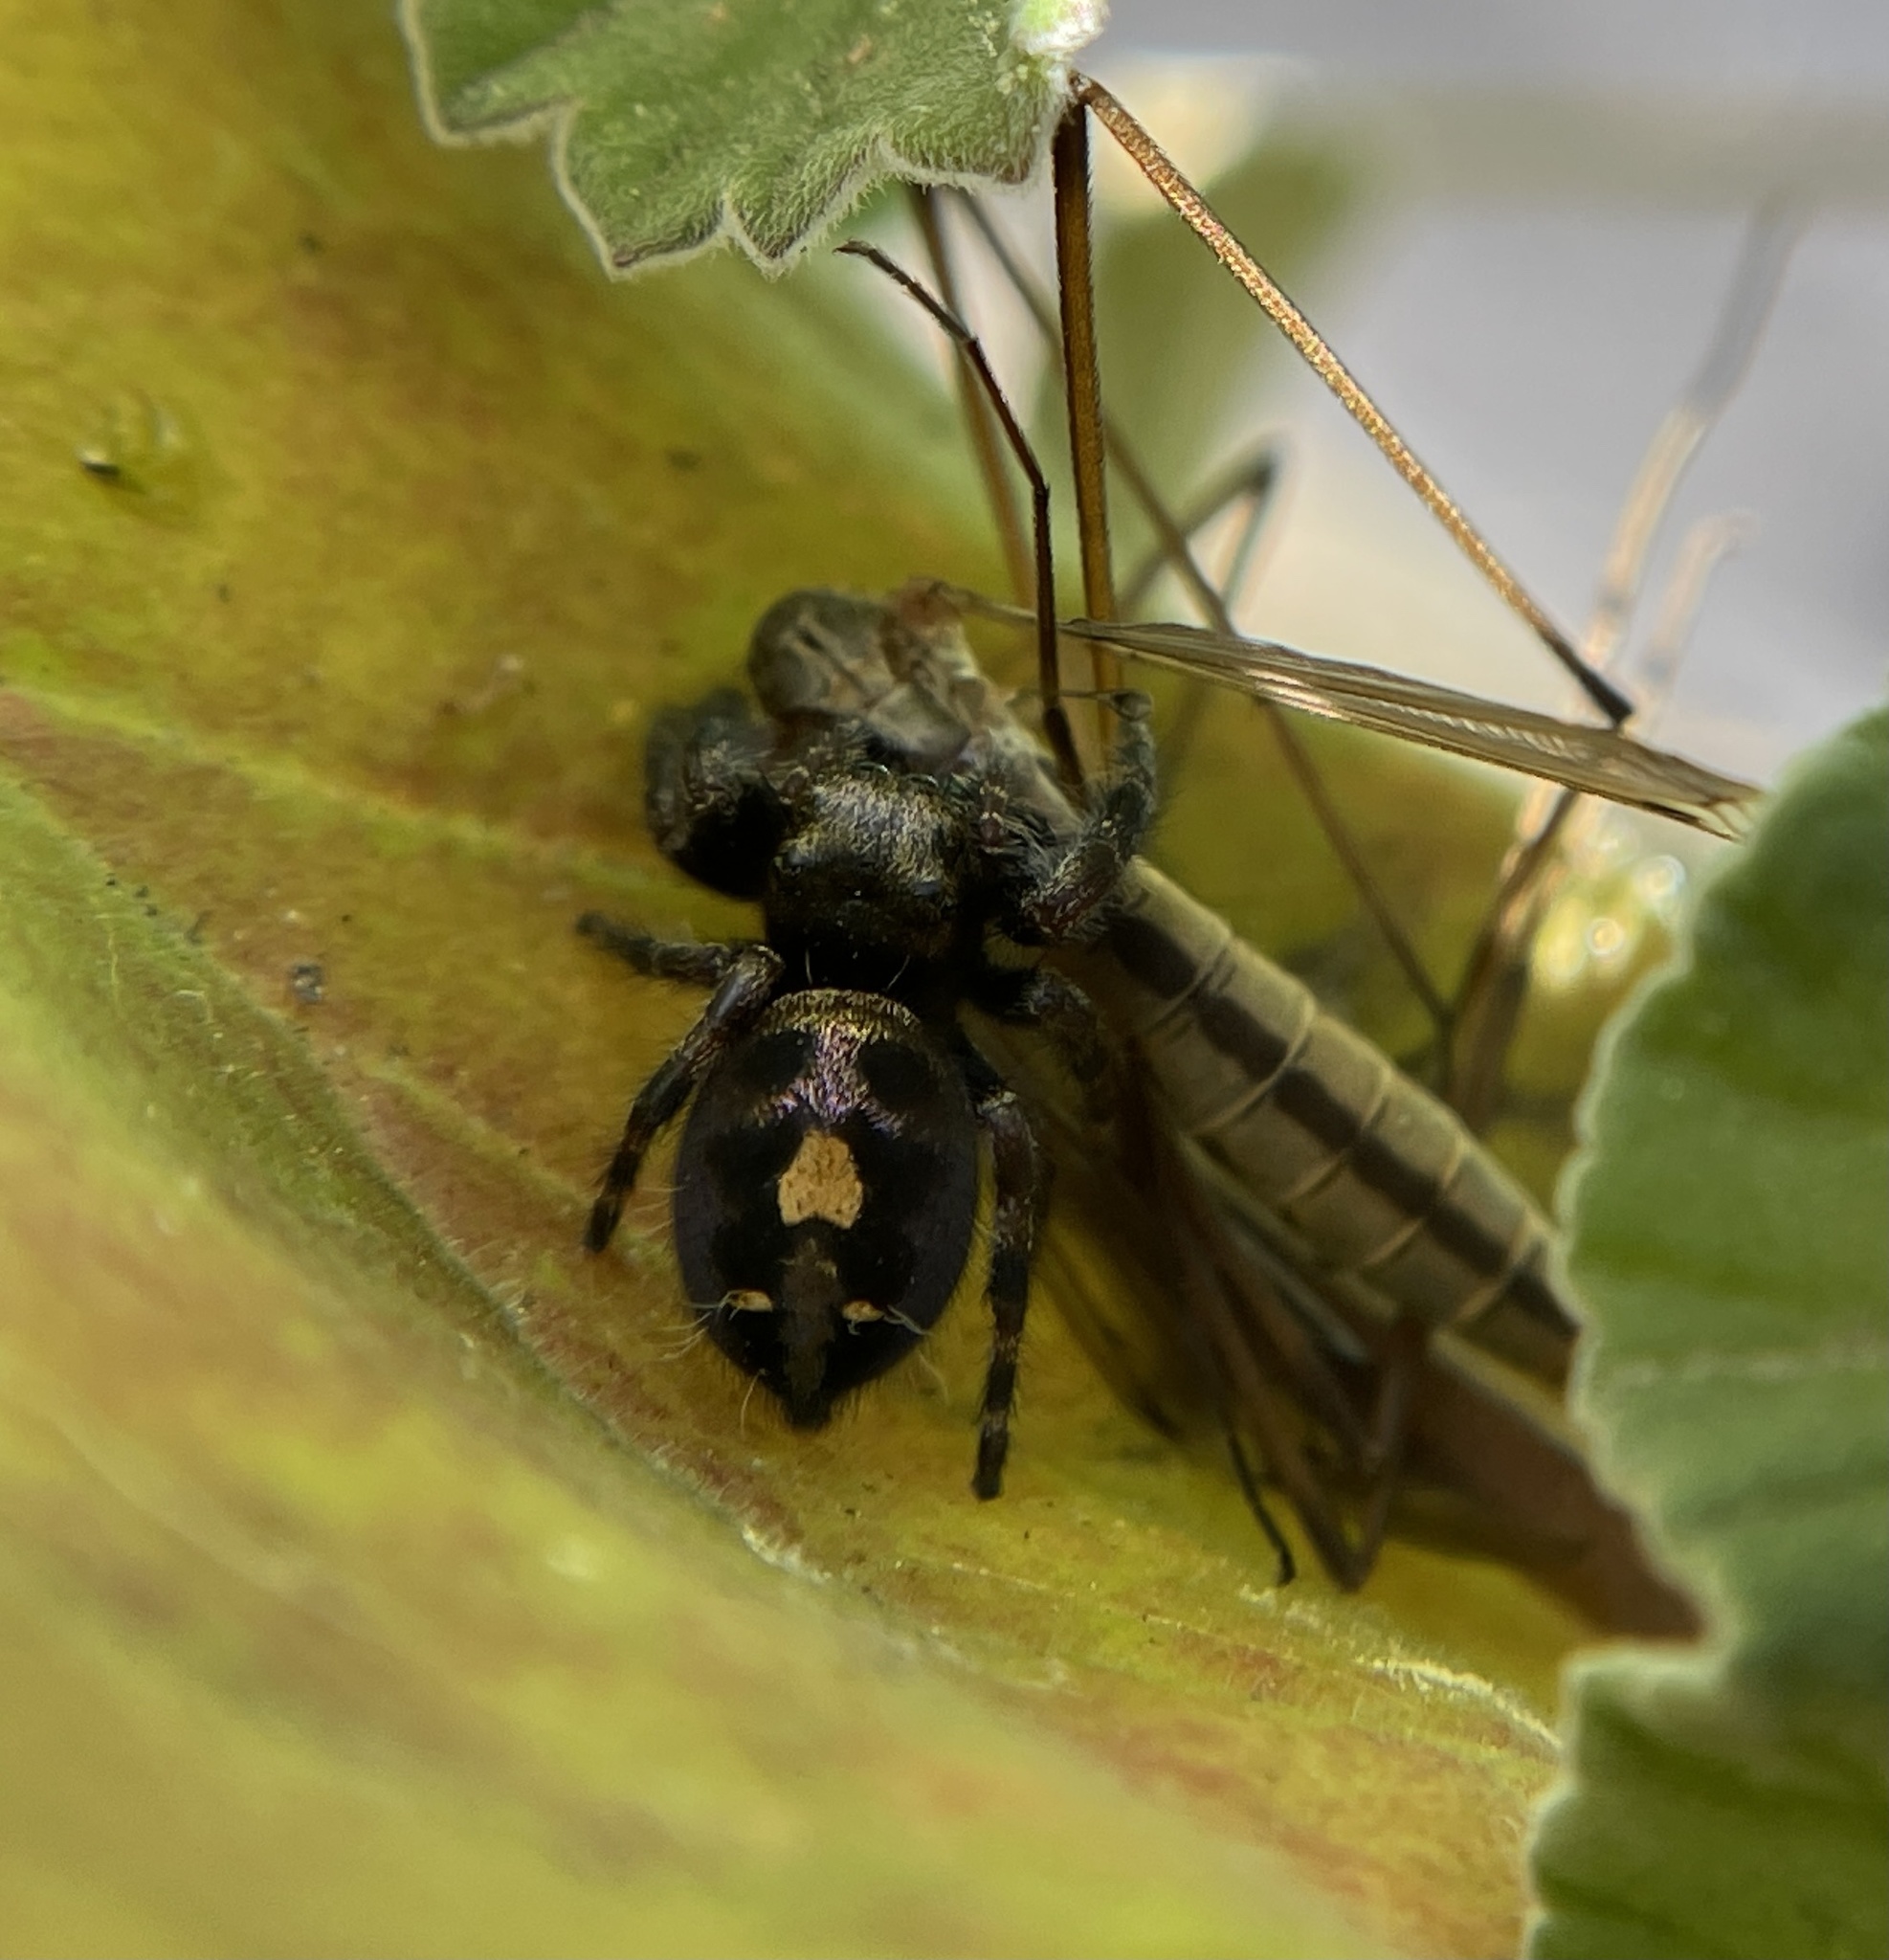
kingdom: Animalia
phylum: Arthropoda
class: Arachnida
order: Araneae
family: Salticidae
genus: Phidippus
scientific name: Phidippus audax
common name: Bold jumper
